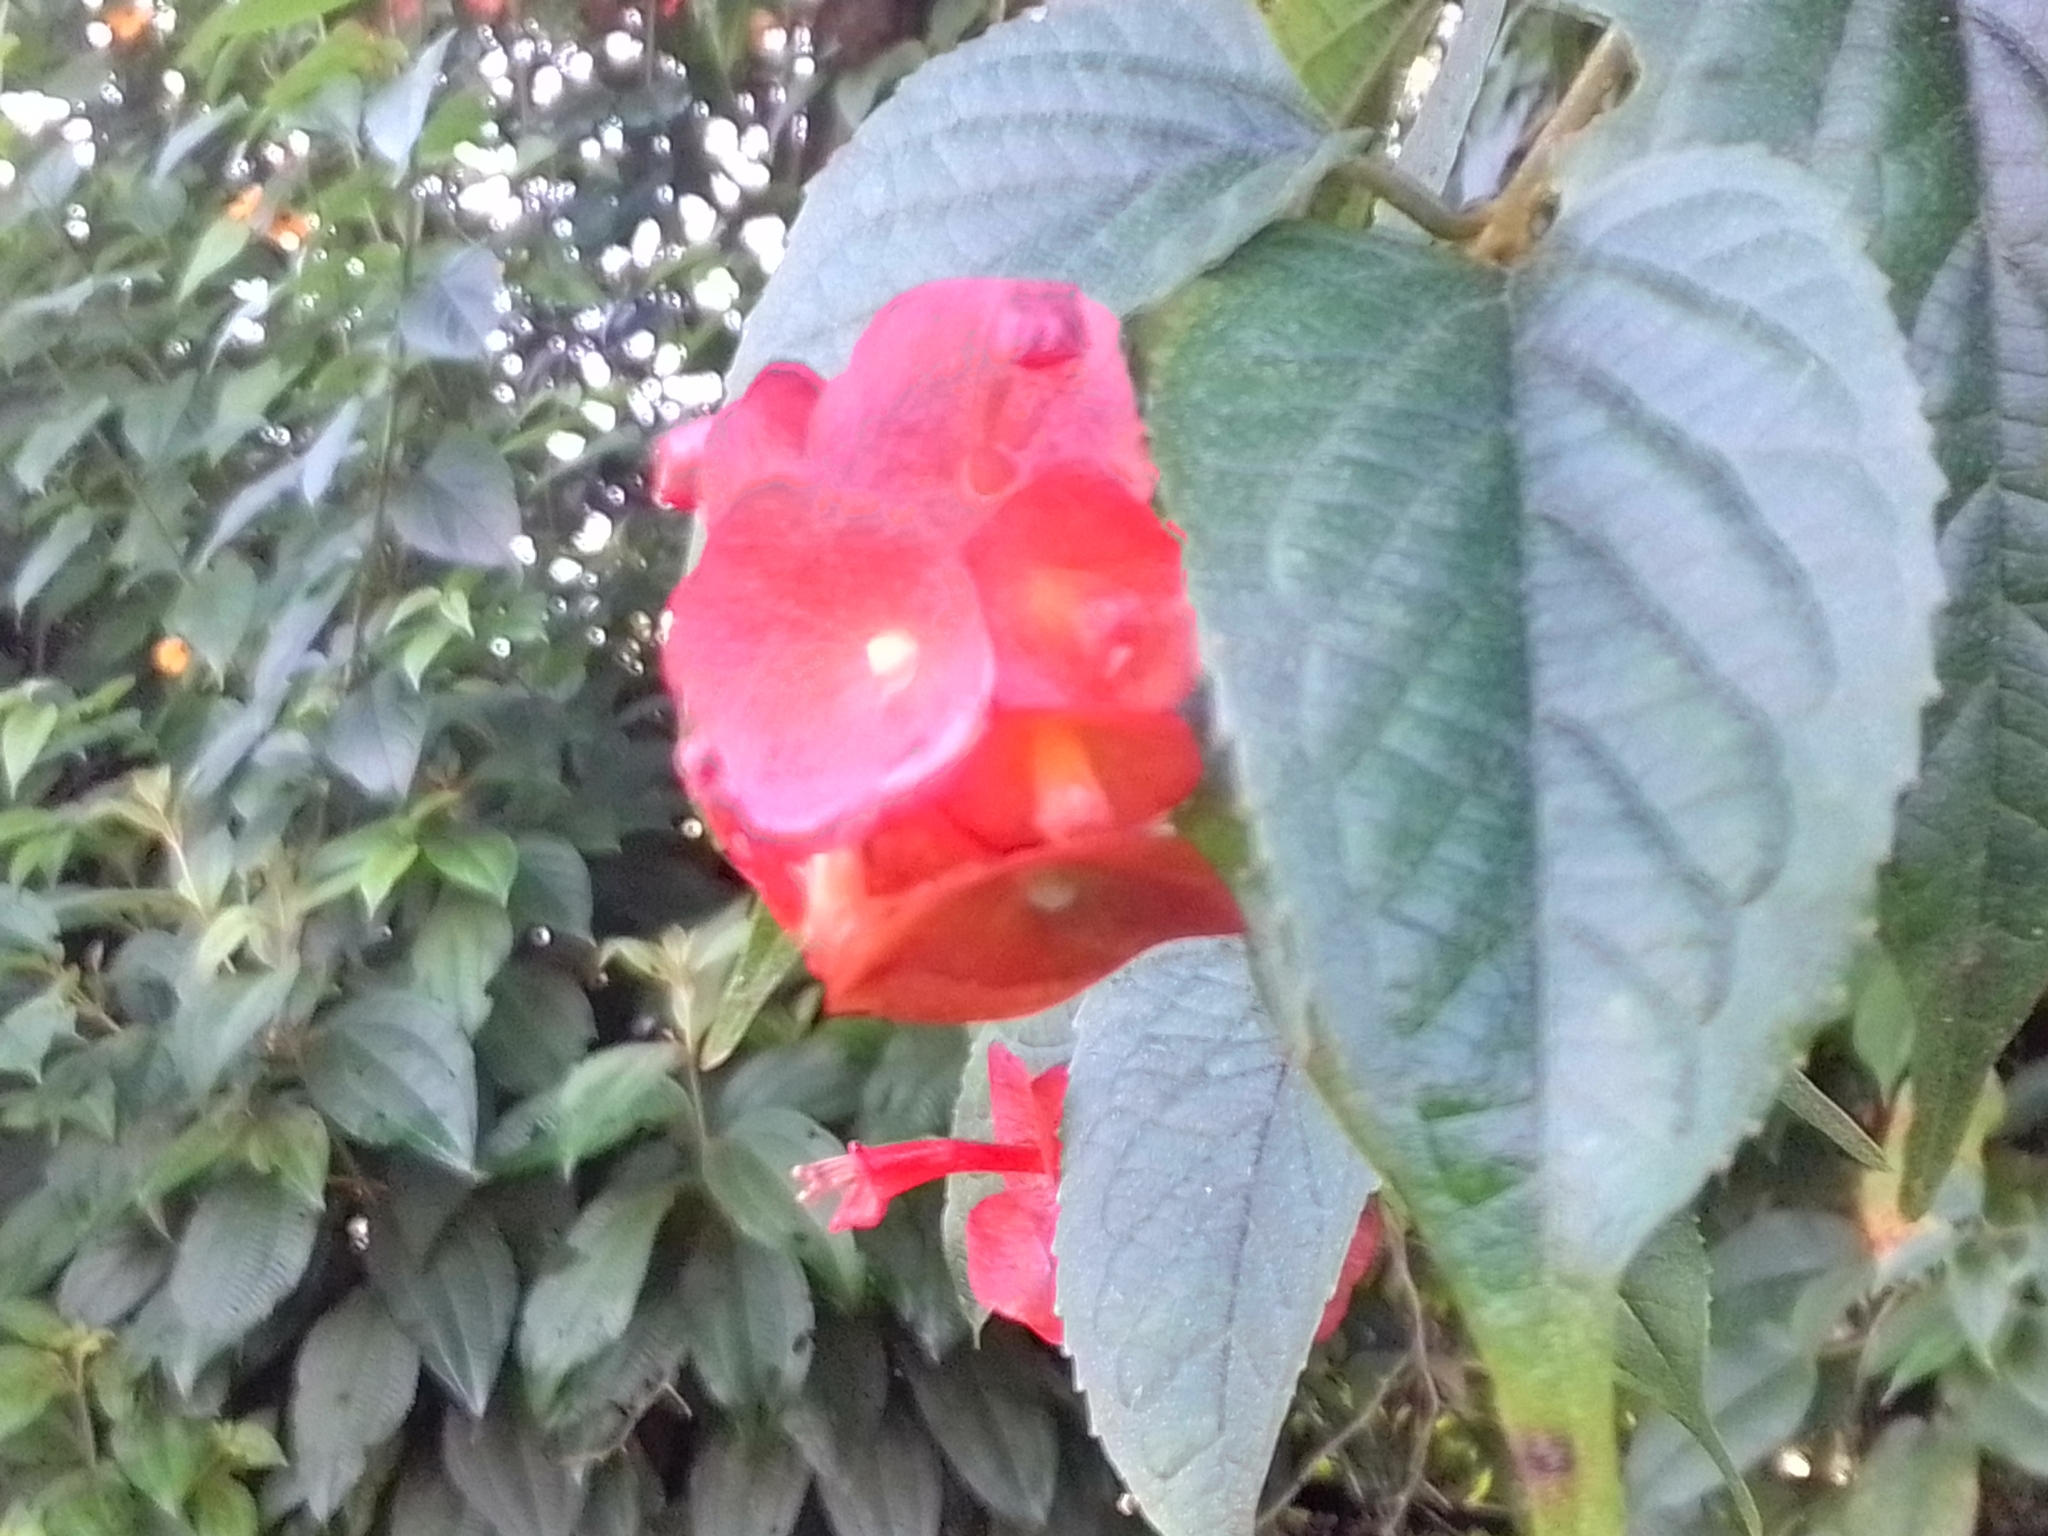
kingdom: Plantae
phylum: Tracheophyta
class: Magnoliopsida
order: Lamiales
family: Lamiaceae
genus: Holmskioldia
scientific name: Holmskioldia sanguinea
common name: Chinese hatplant
